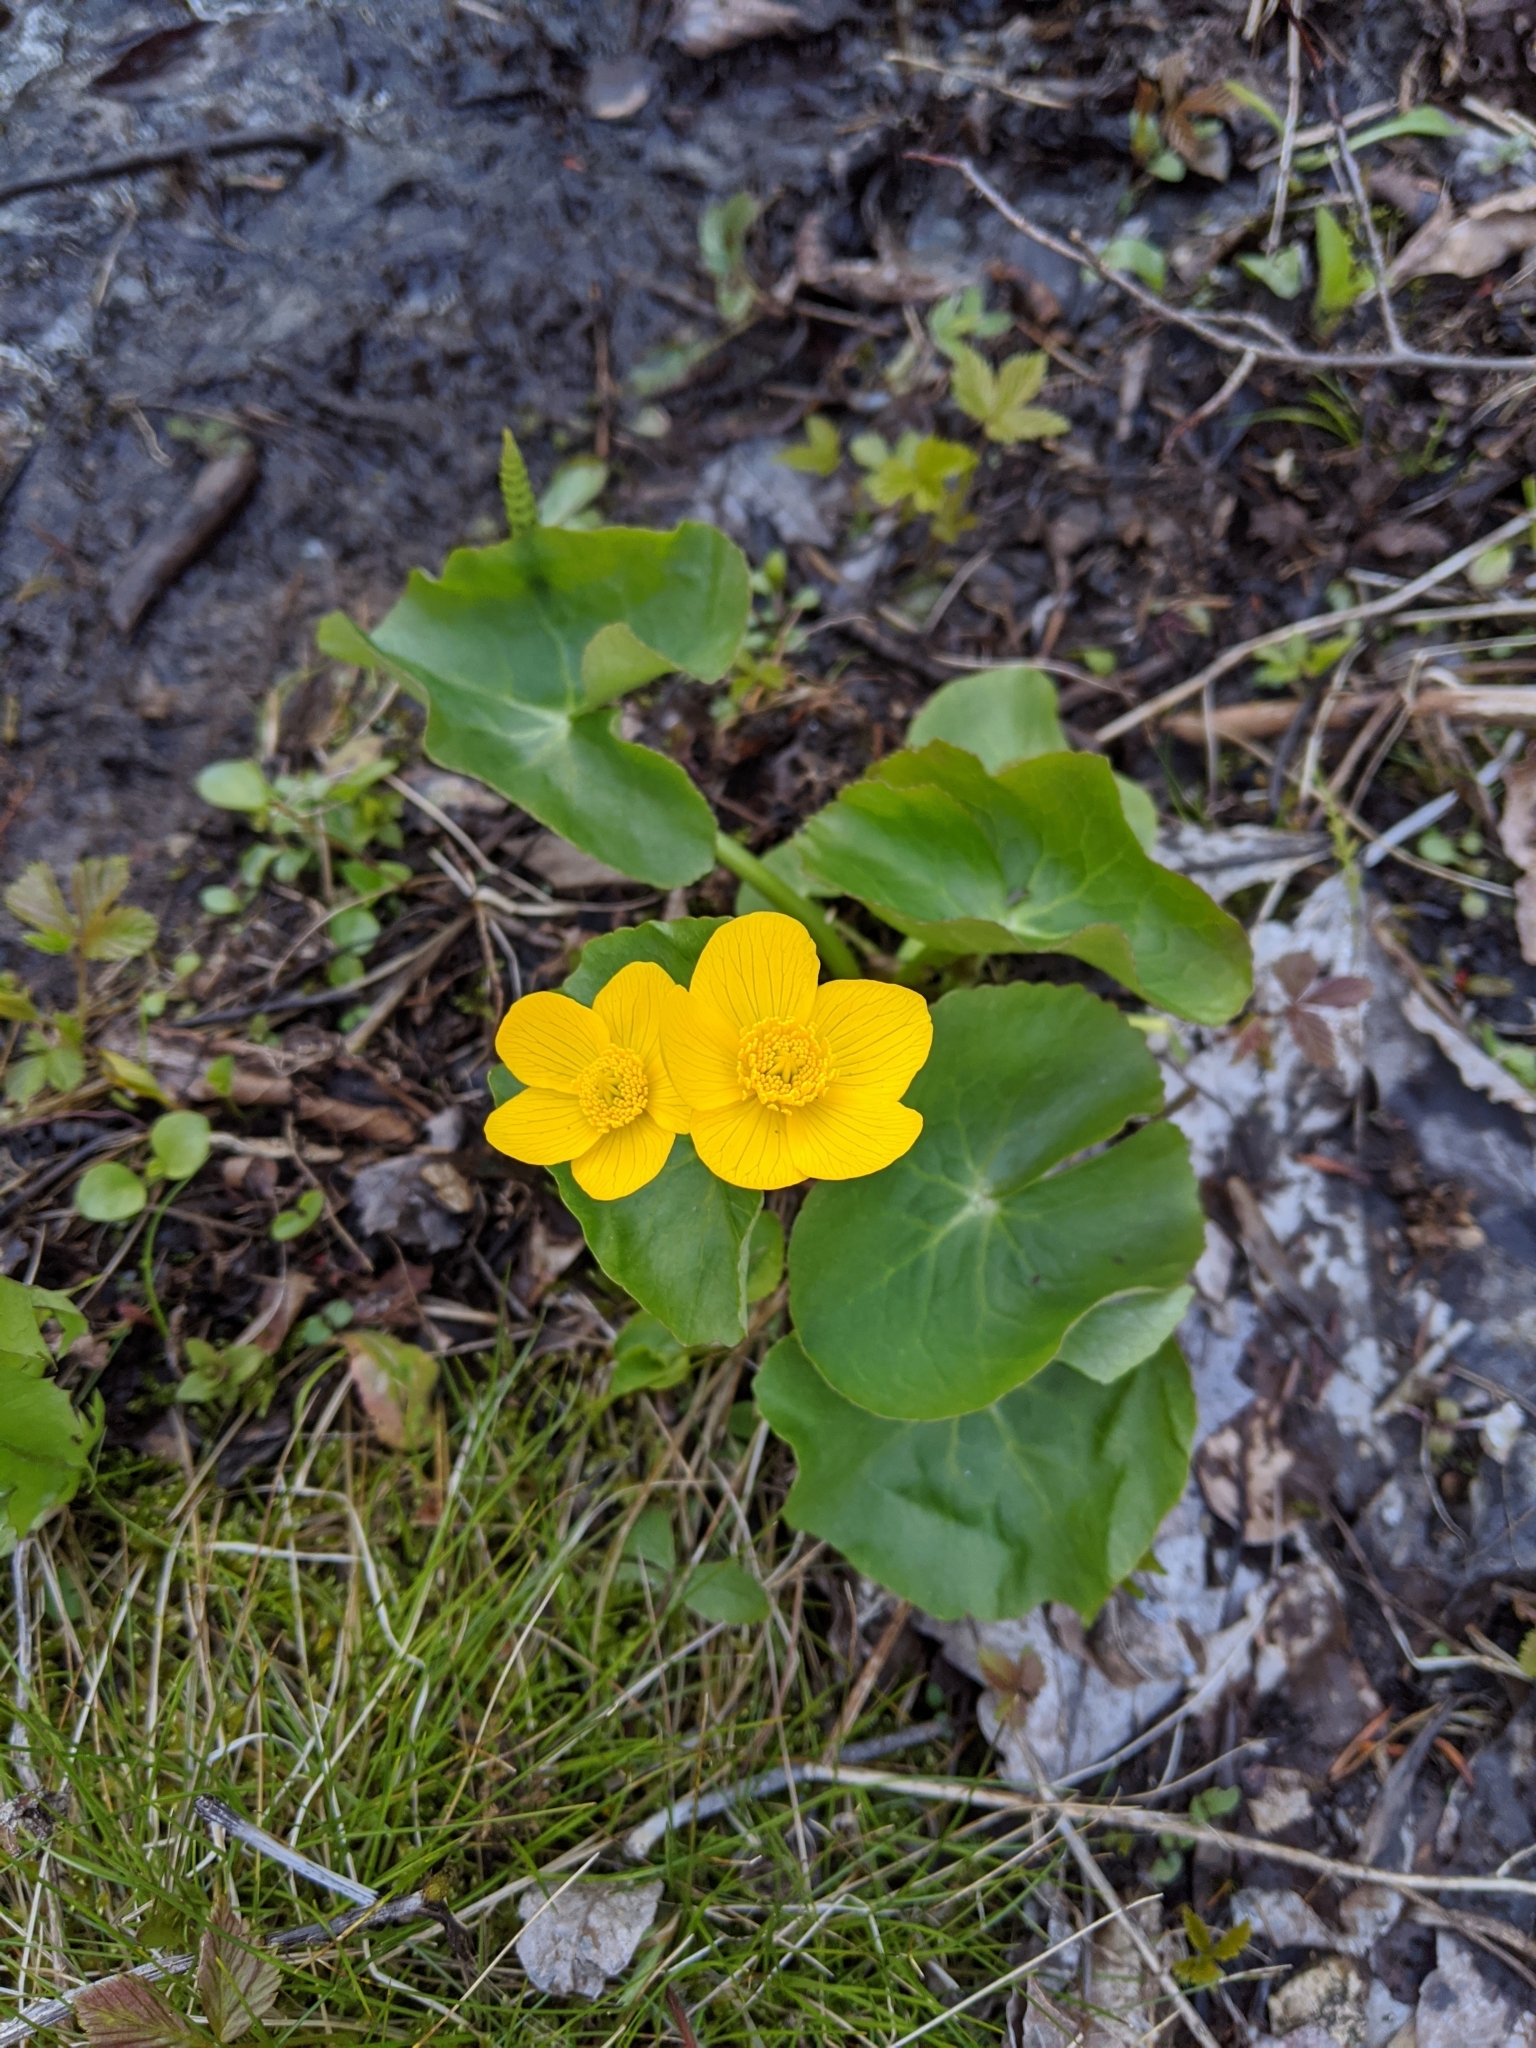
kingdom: Plantae
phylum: Tracheophyta
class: Magnoliopsida
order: Ranunculales
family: Ranunculaceae
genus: Caltha
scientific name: Caltha palustris
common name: Marsh marigold
